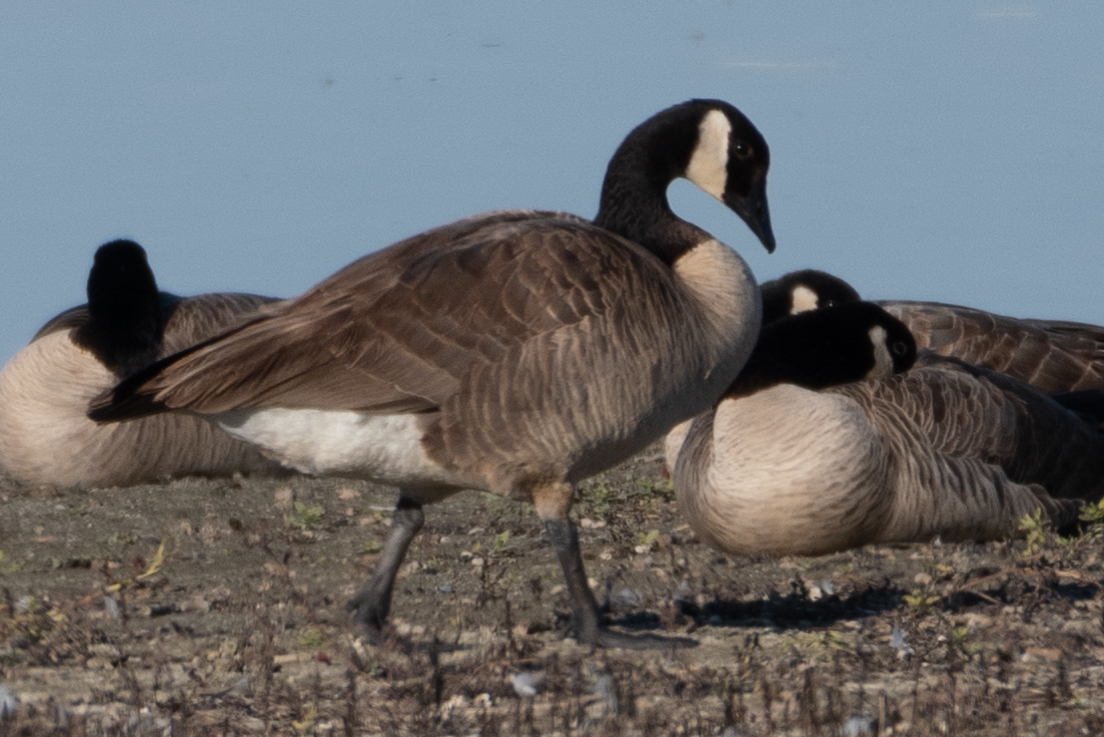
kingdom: Animalia
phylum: Chordata
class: Aves
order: Anseriformes
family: Anatidae
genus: Branta
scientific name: Branta canadensis
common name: Canada goose
